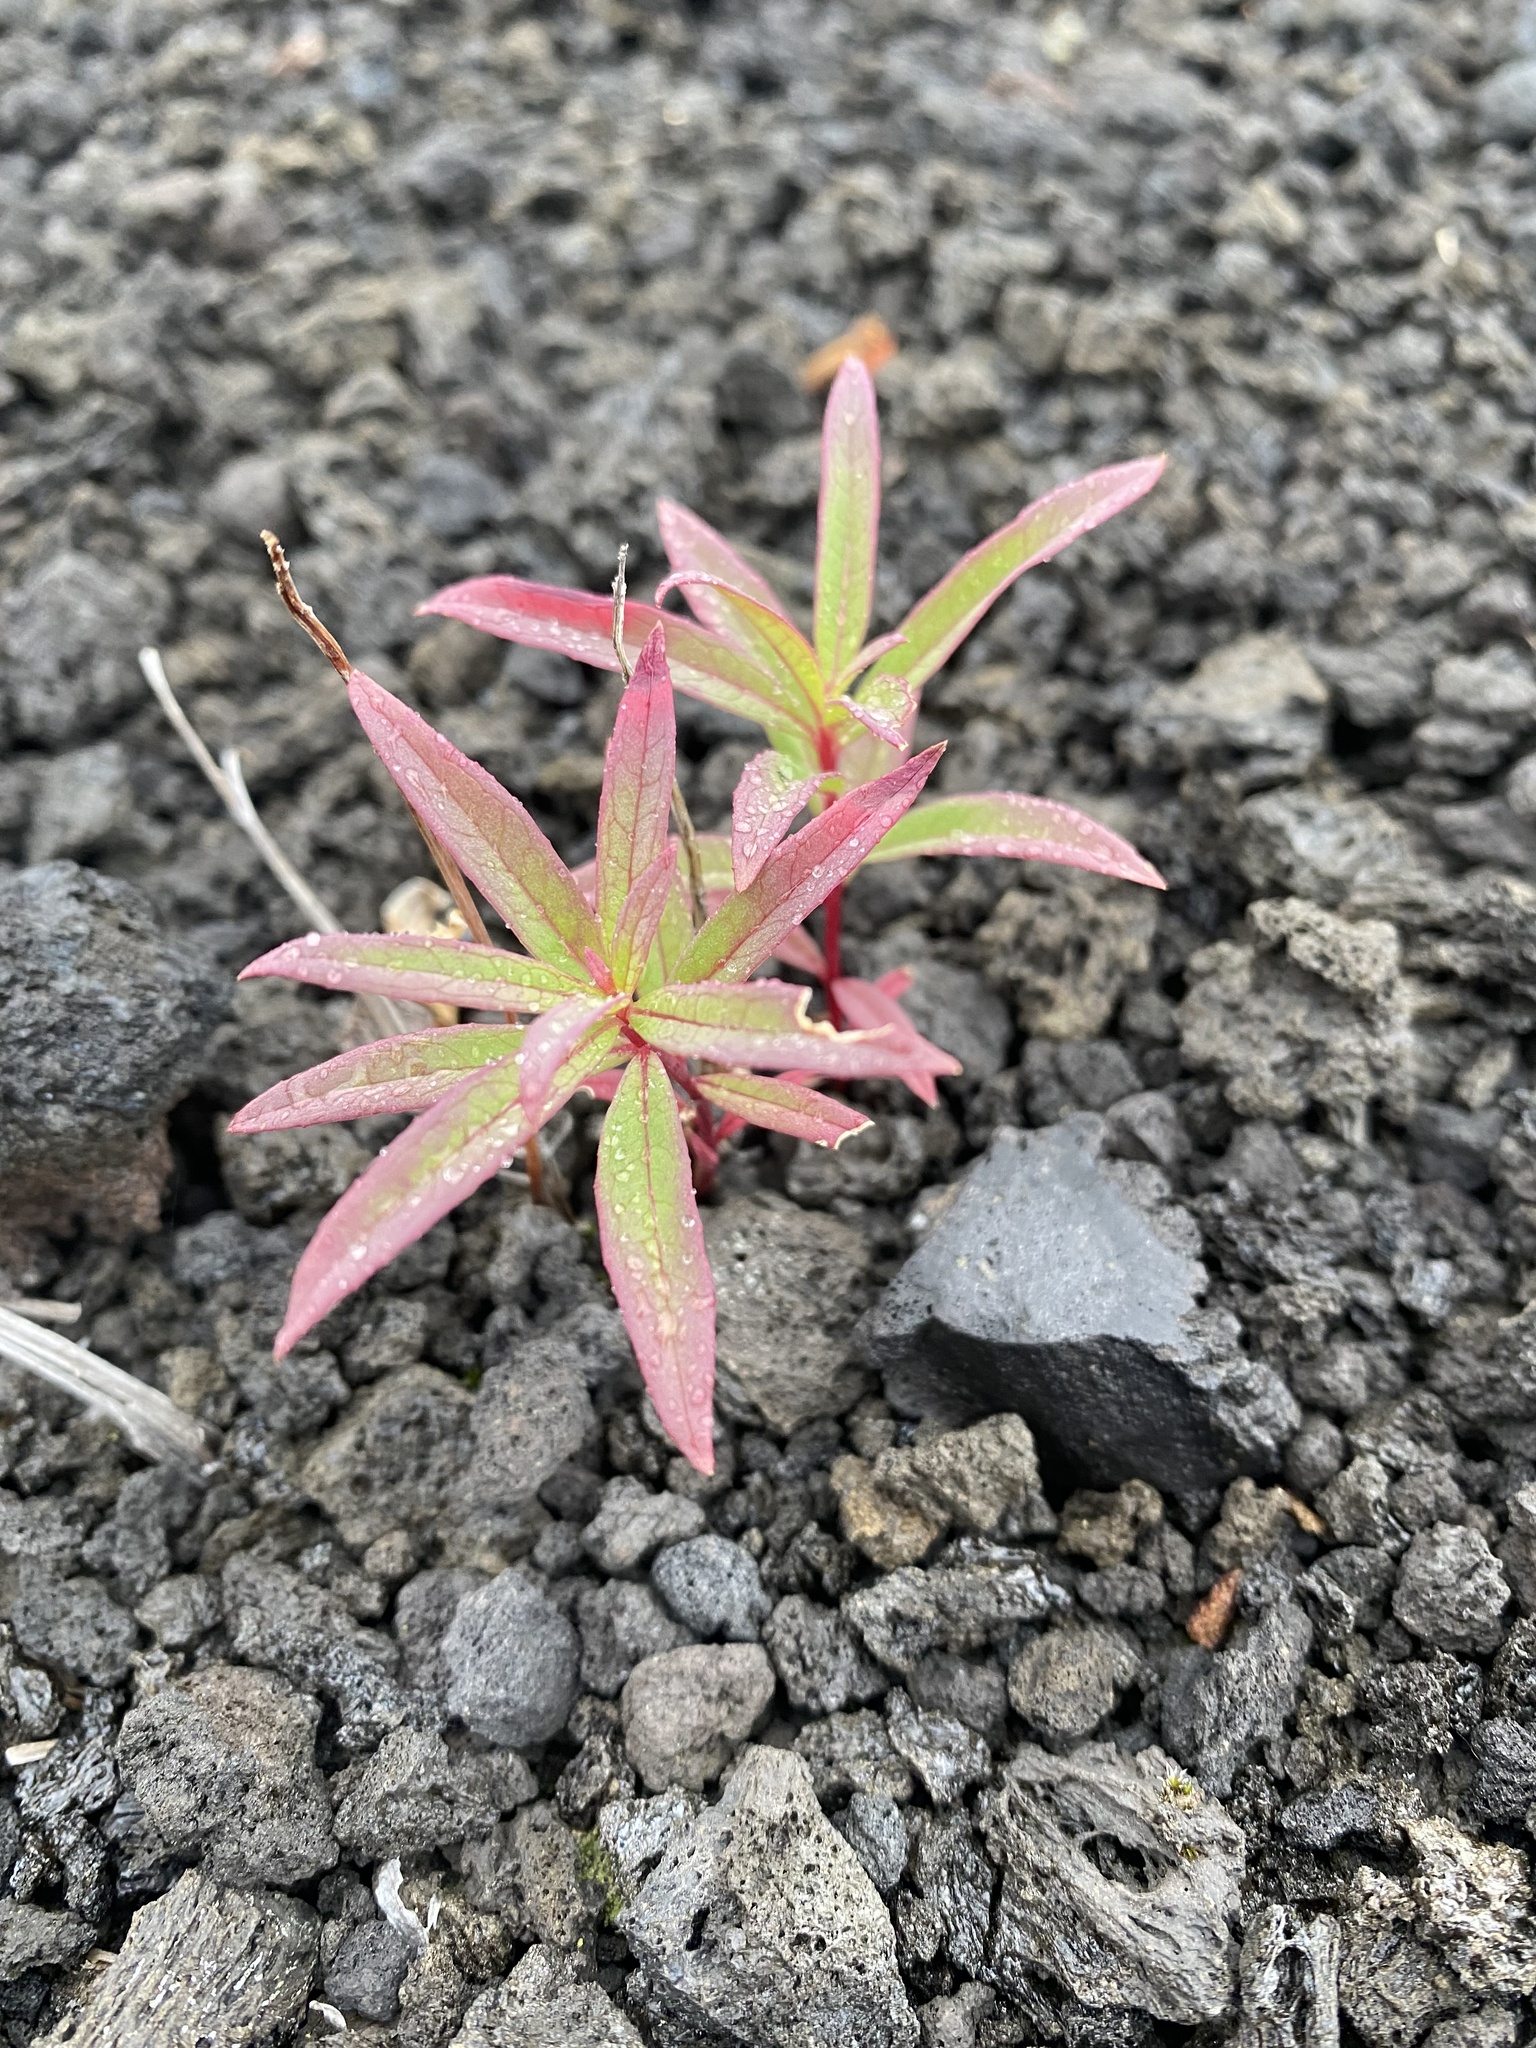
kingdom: Plantae
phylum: Tracheophyta
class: Magnoliopsida
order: Myrtales
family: Onagraceae
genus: Chamaenerion
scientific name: Chamaenerion angustifolium
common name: Fireweed
